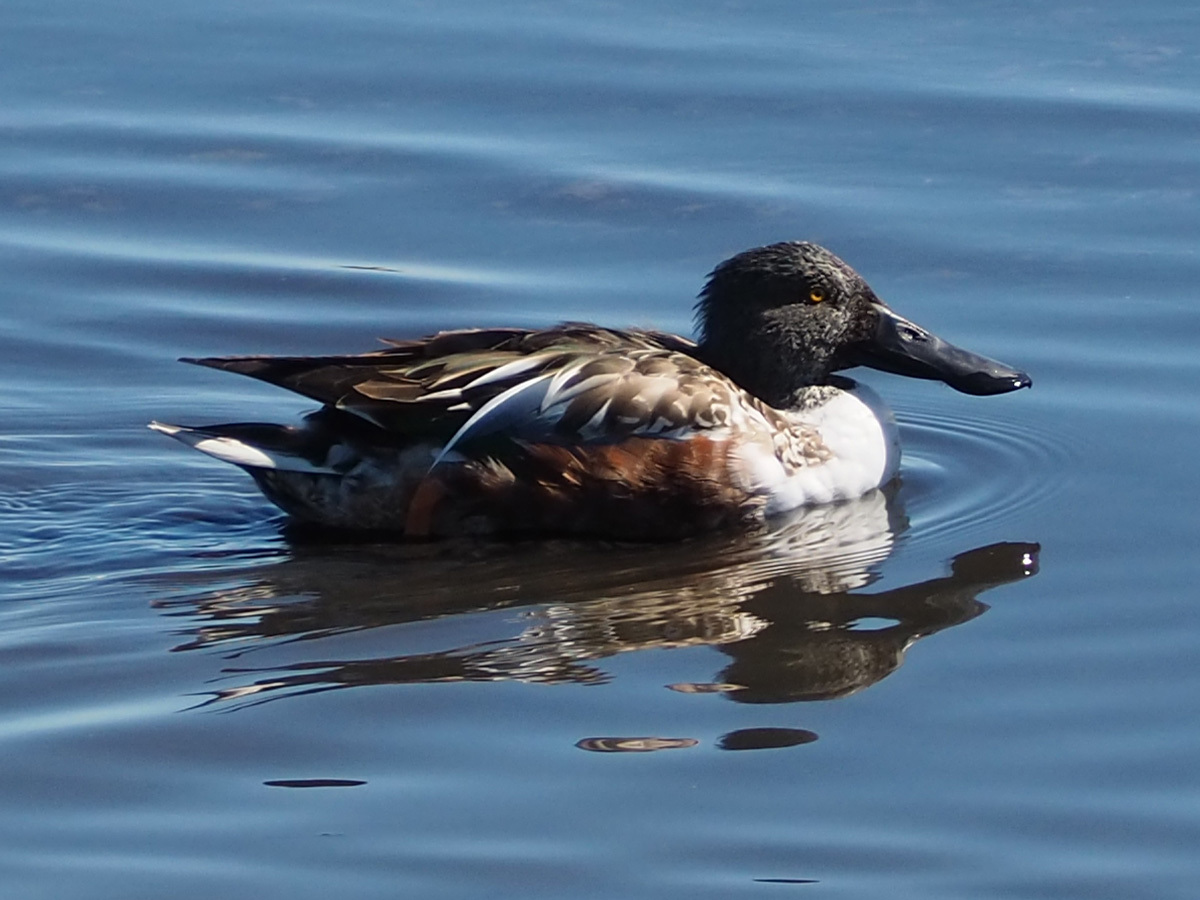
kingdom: Animalia
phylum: Chordata
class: Aves
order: Anseriformes
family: Anatidae
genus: Spatula
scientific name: Spatula clypeata
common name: Northern shoveler
